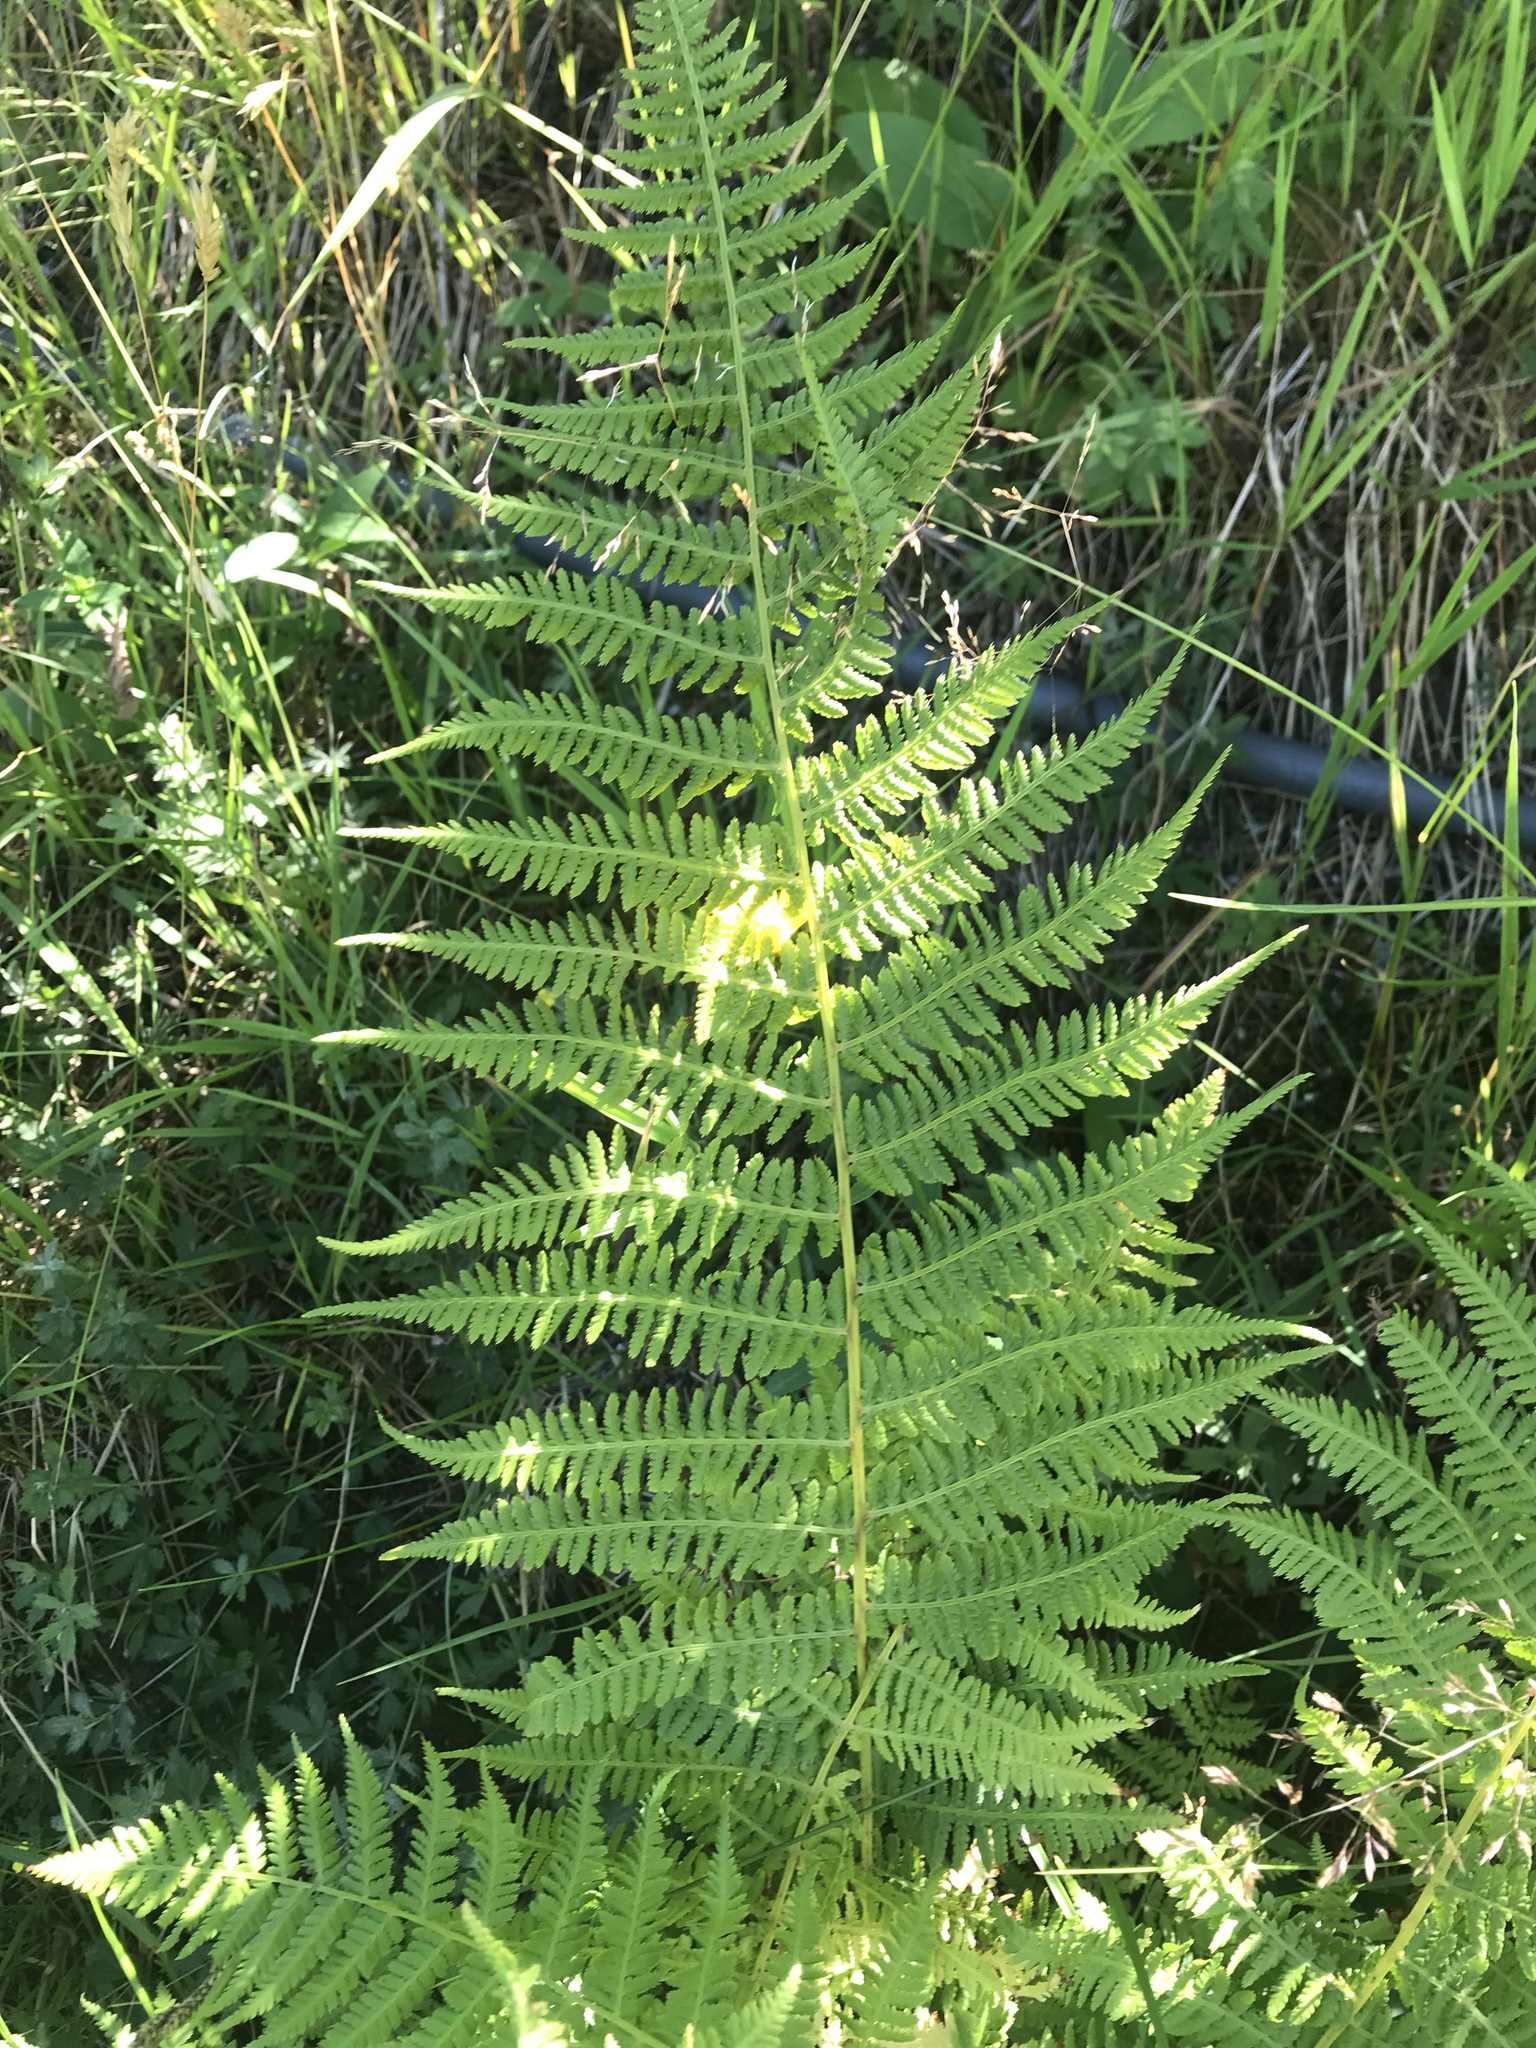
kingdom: Plantae
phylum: Tracheophyta
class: Polypodiopsida
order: Polypodiales
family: Athyriaceae
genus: Athyrium
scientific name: Athyrium filix-femina
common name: Lady fern
